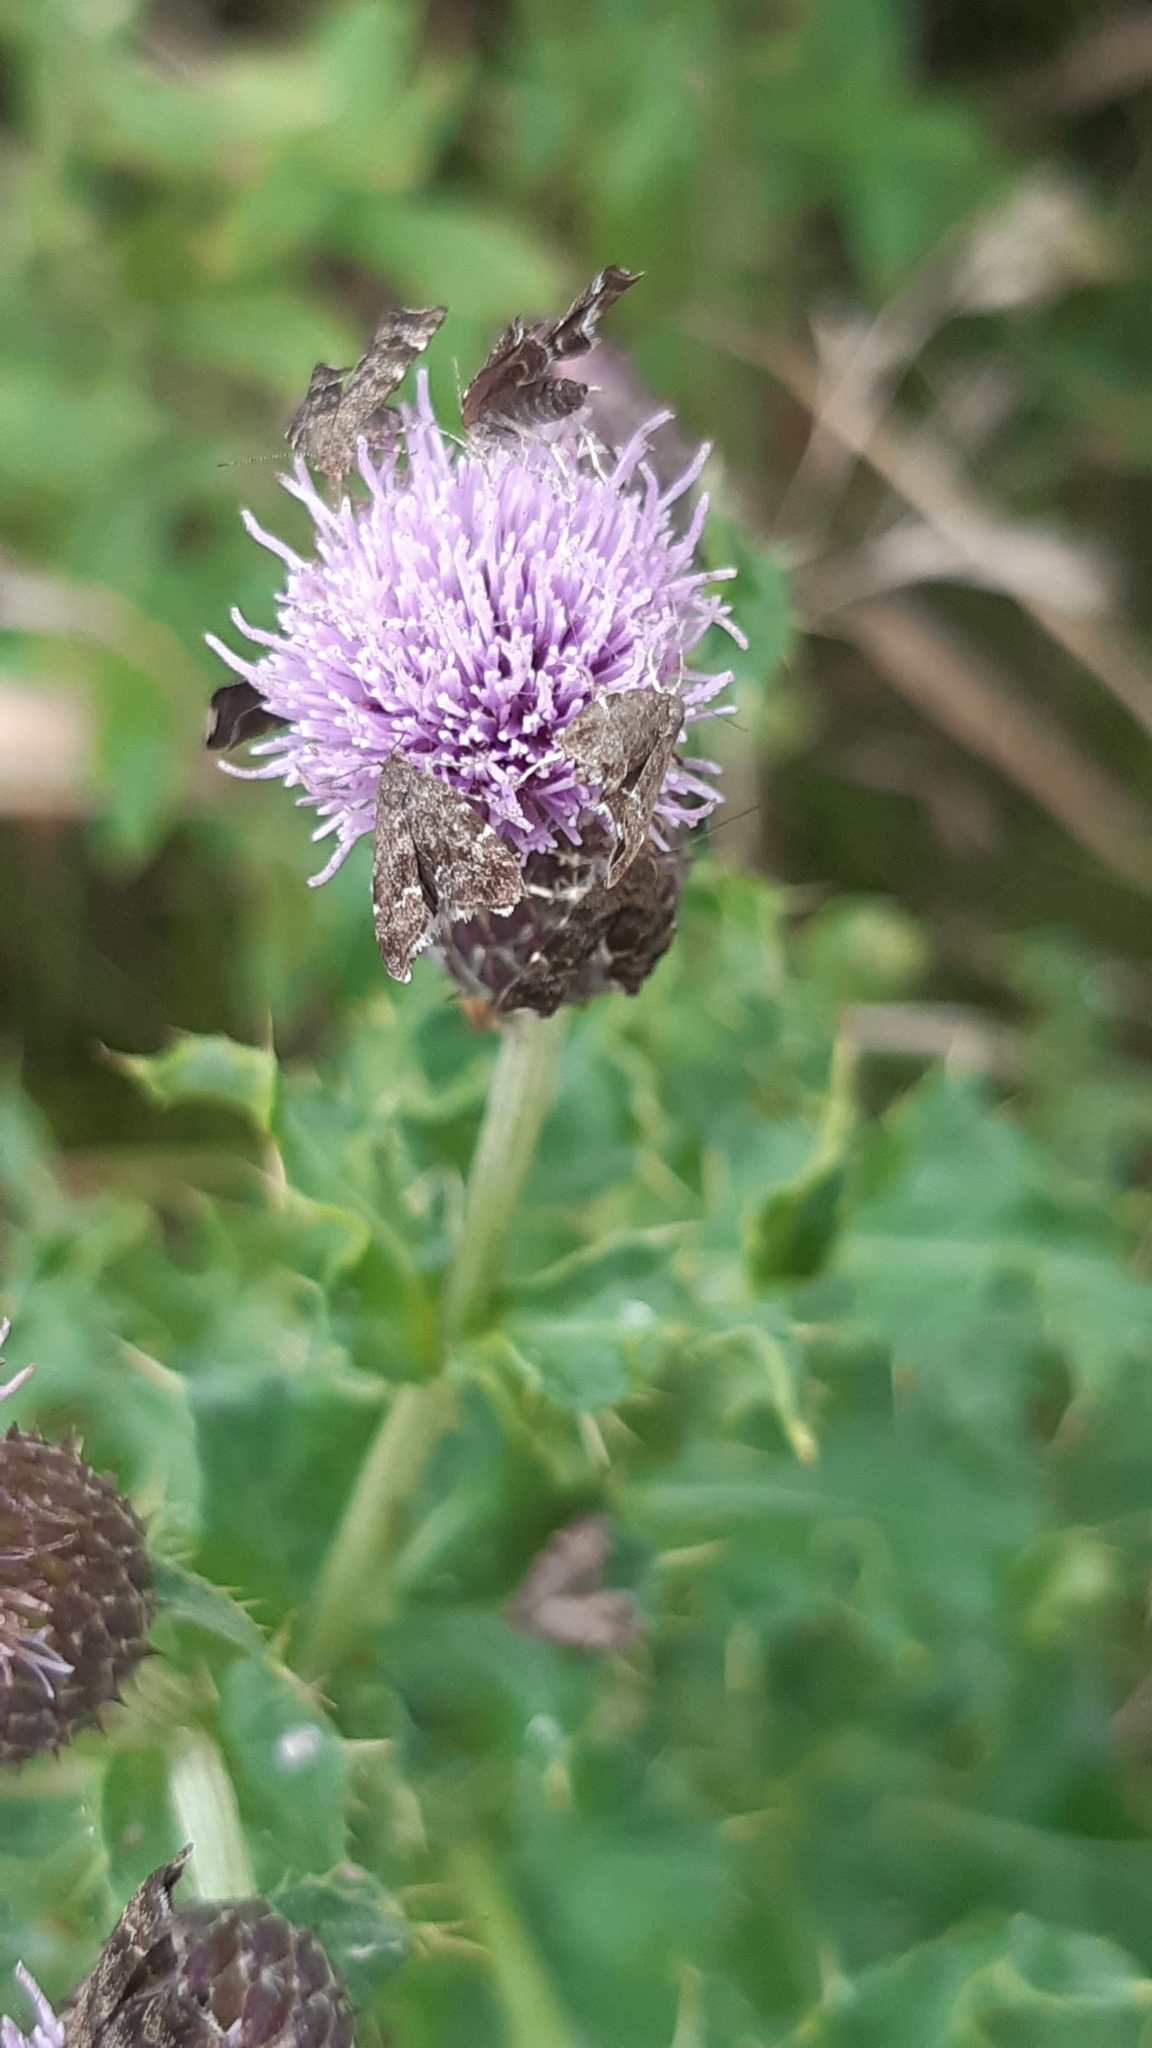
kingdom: Animalia
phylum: Arthropoda
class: Insecta
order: Lepidoptera
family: Choreutidae
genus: Anthophila
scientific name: Anthophila fabriciana
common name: Nettle-tap
